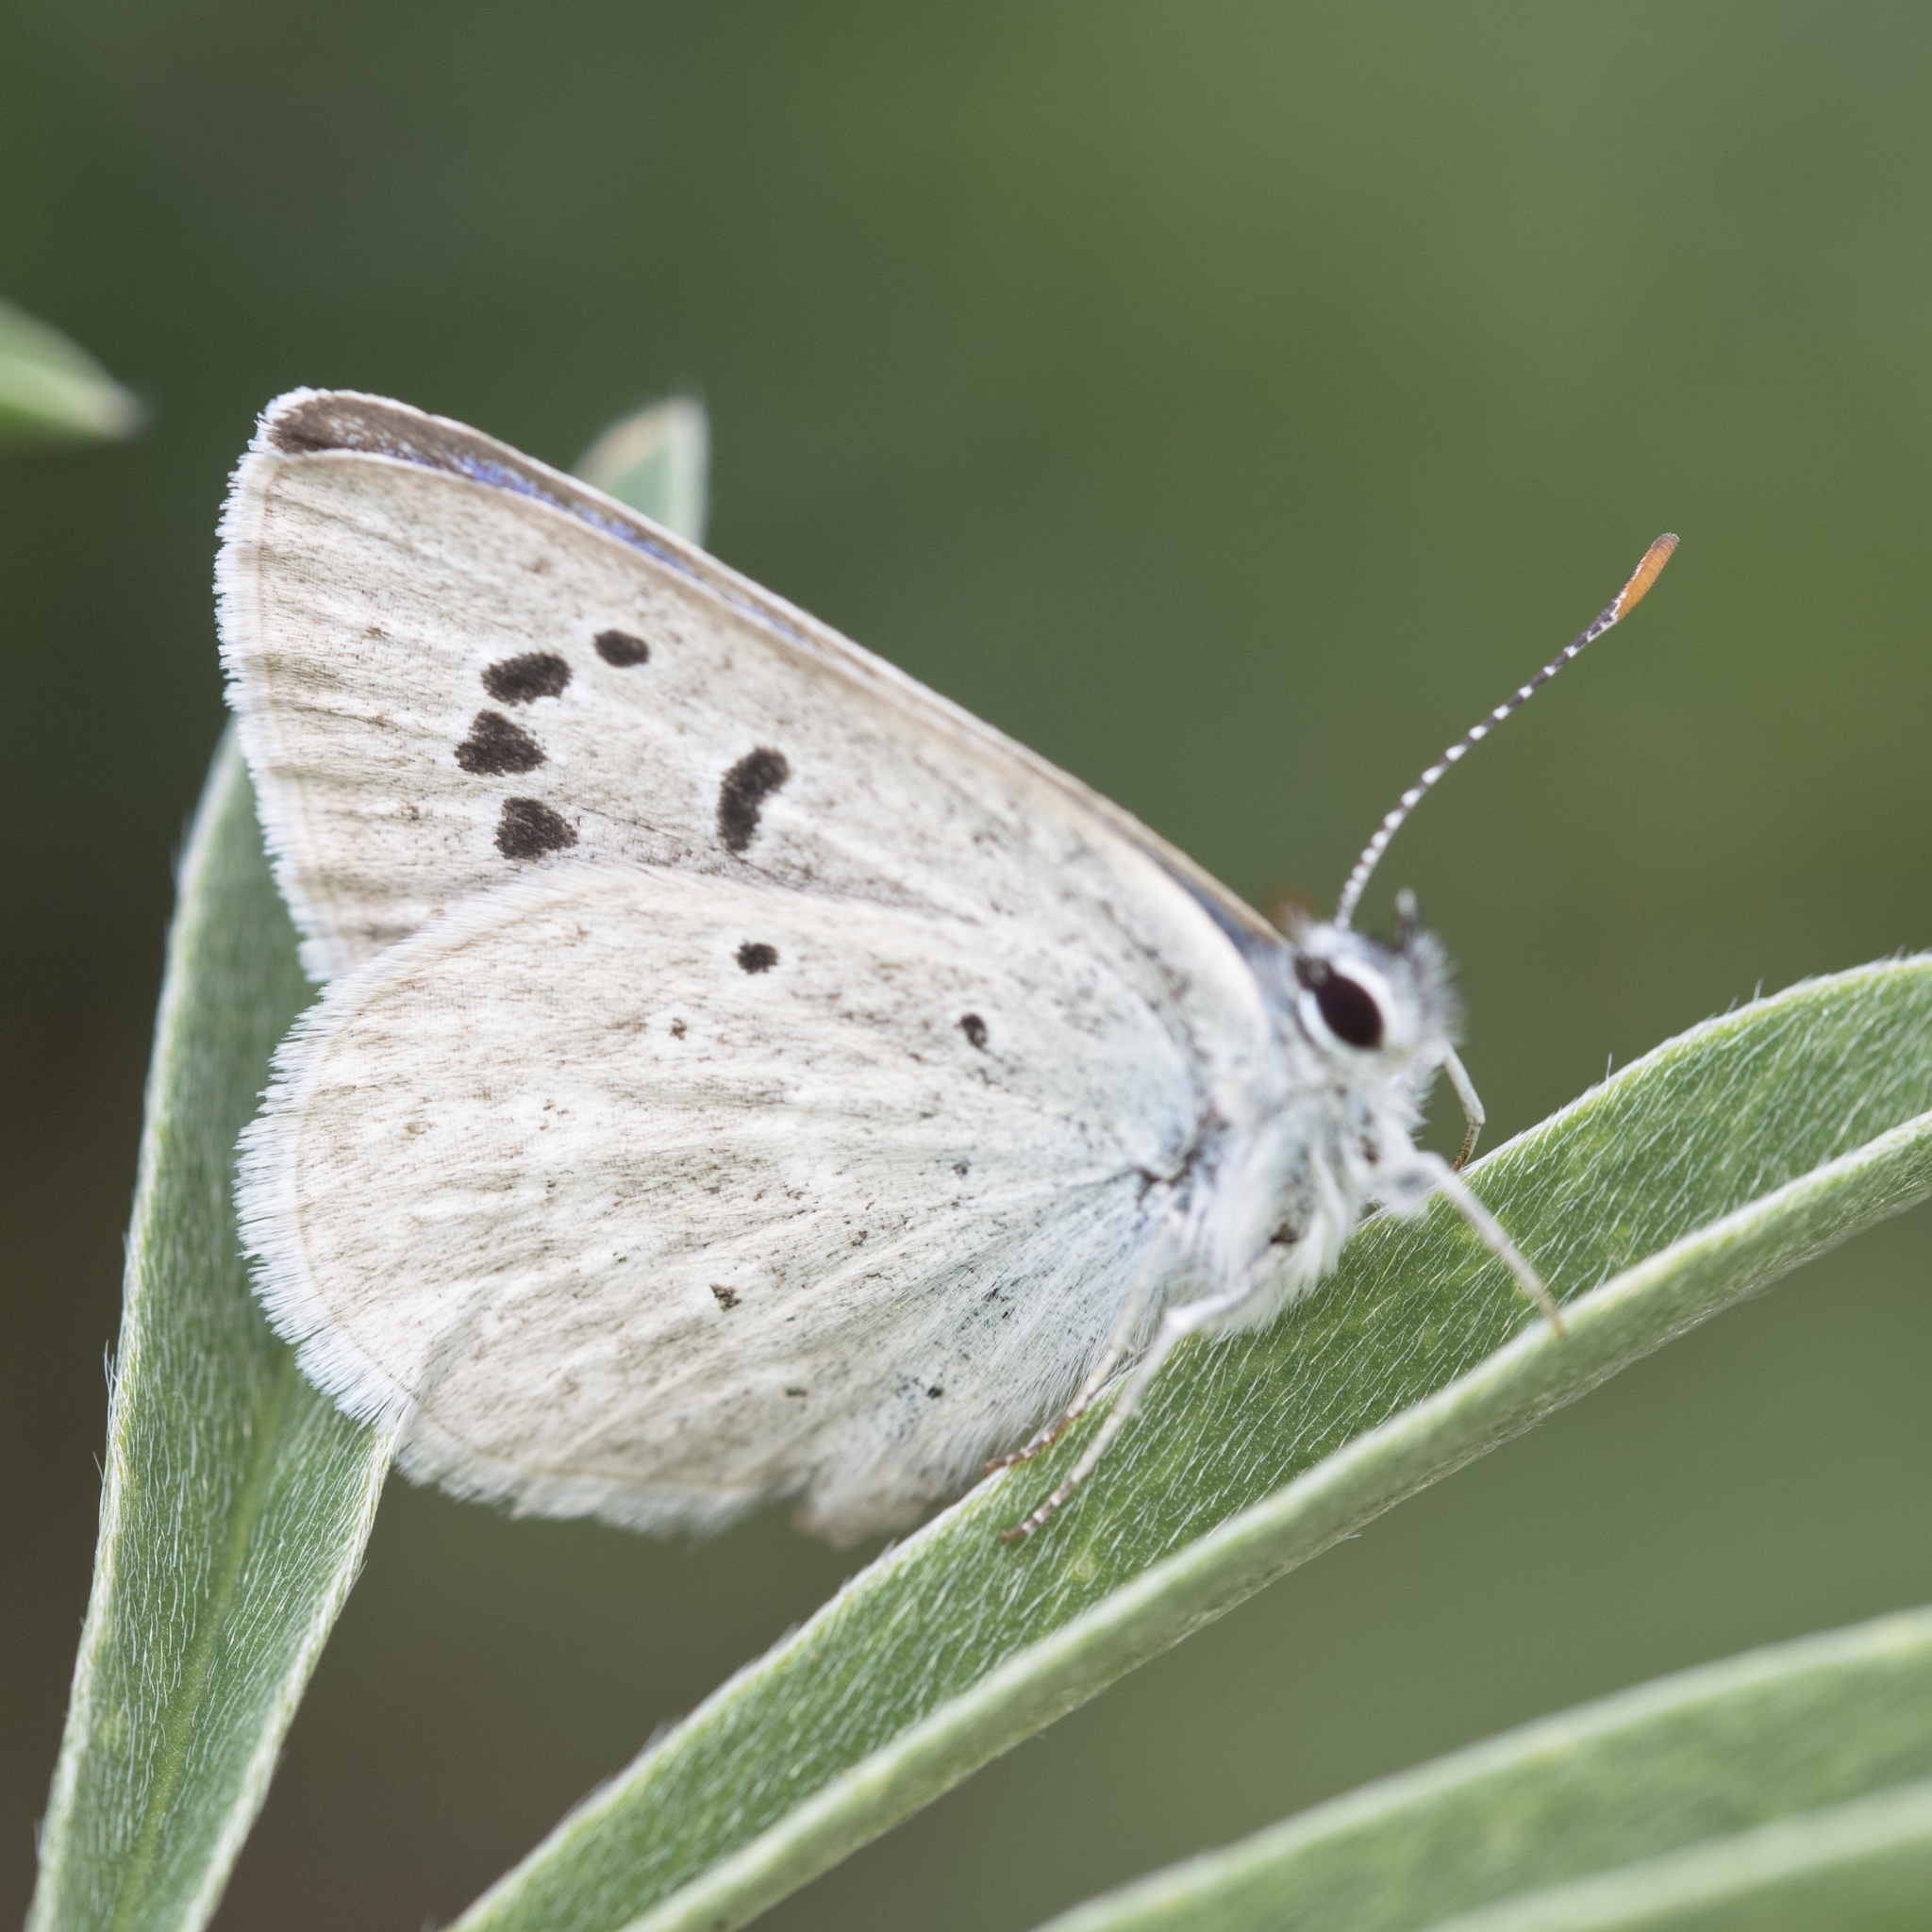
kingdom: Animalia
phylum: Arthropoda
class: Insecta
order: Lepidoptera
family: Lycaenidae
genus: Icaricia
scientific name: Icaricia icarioides
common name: Boisduval's blue
